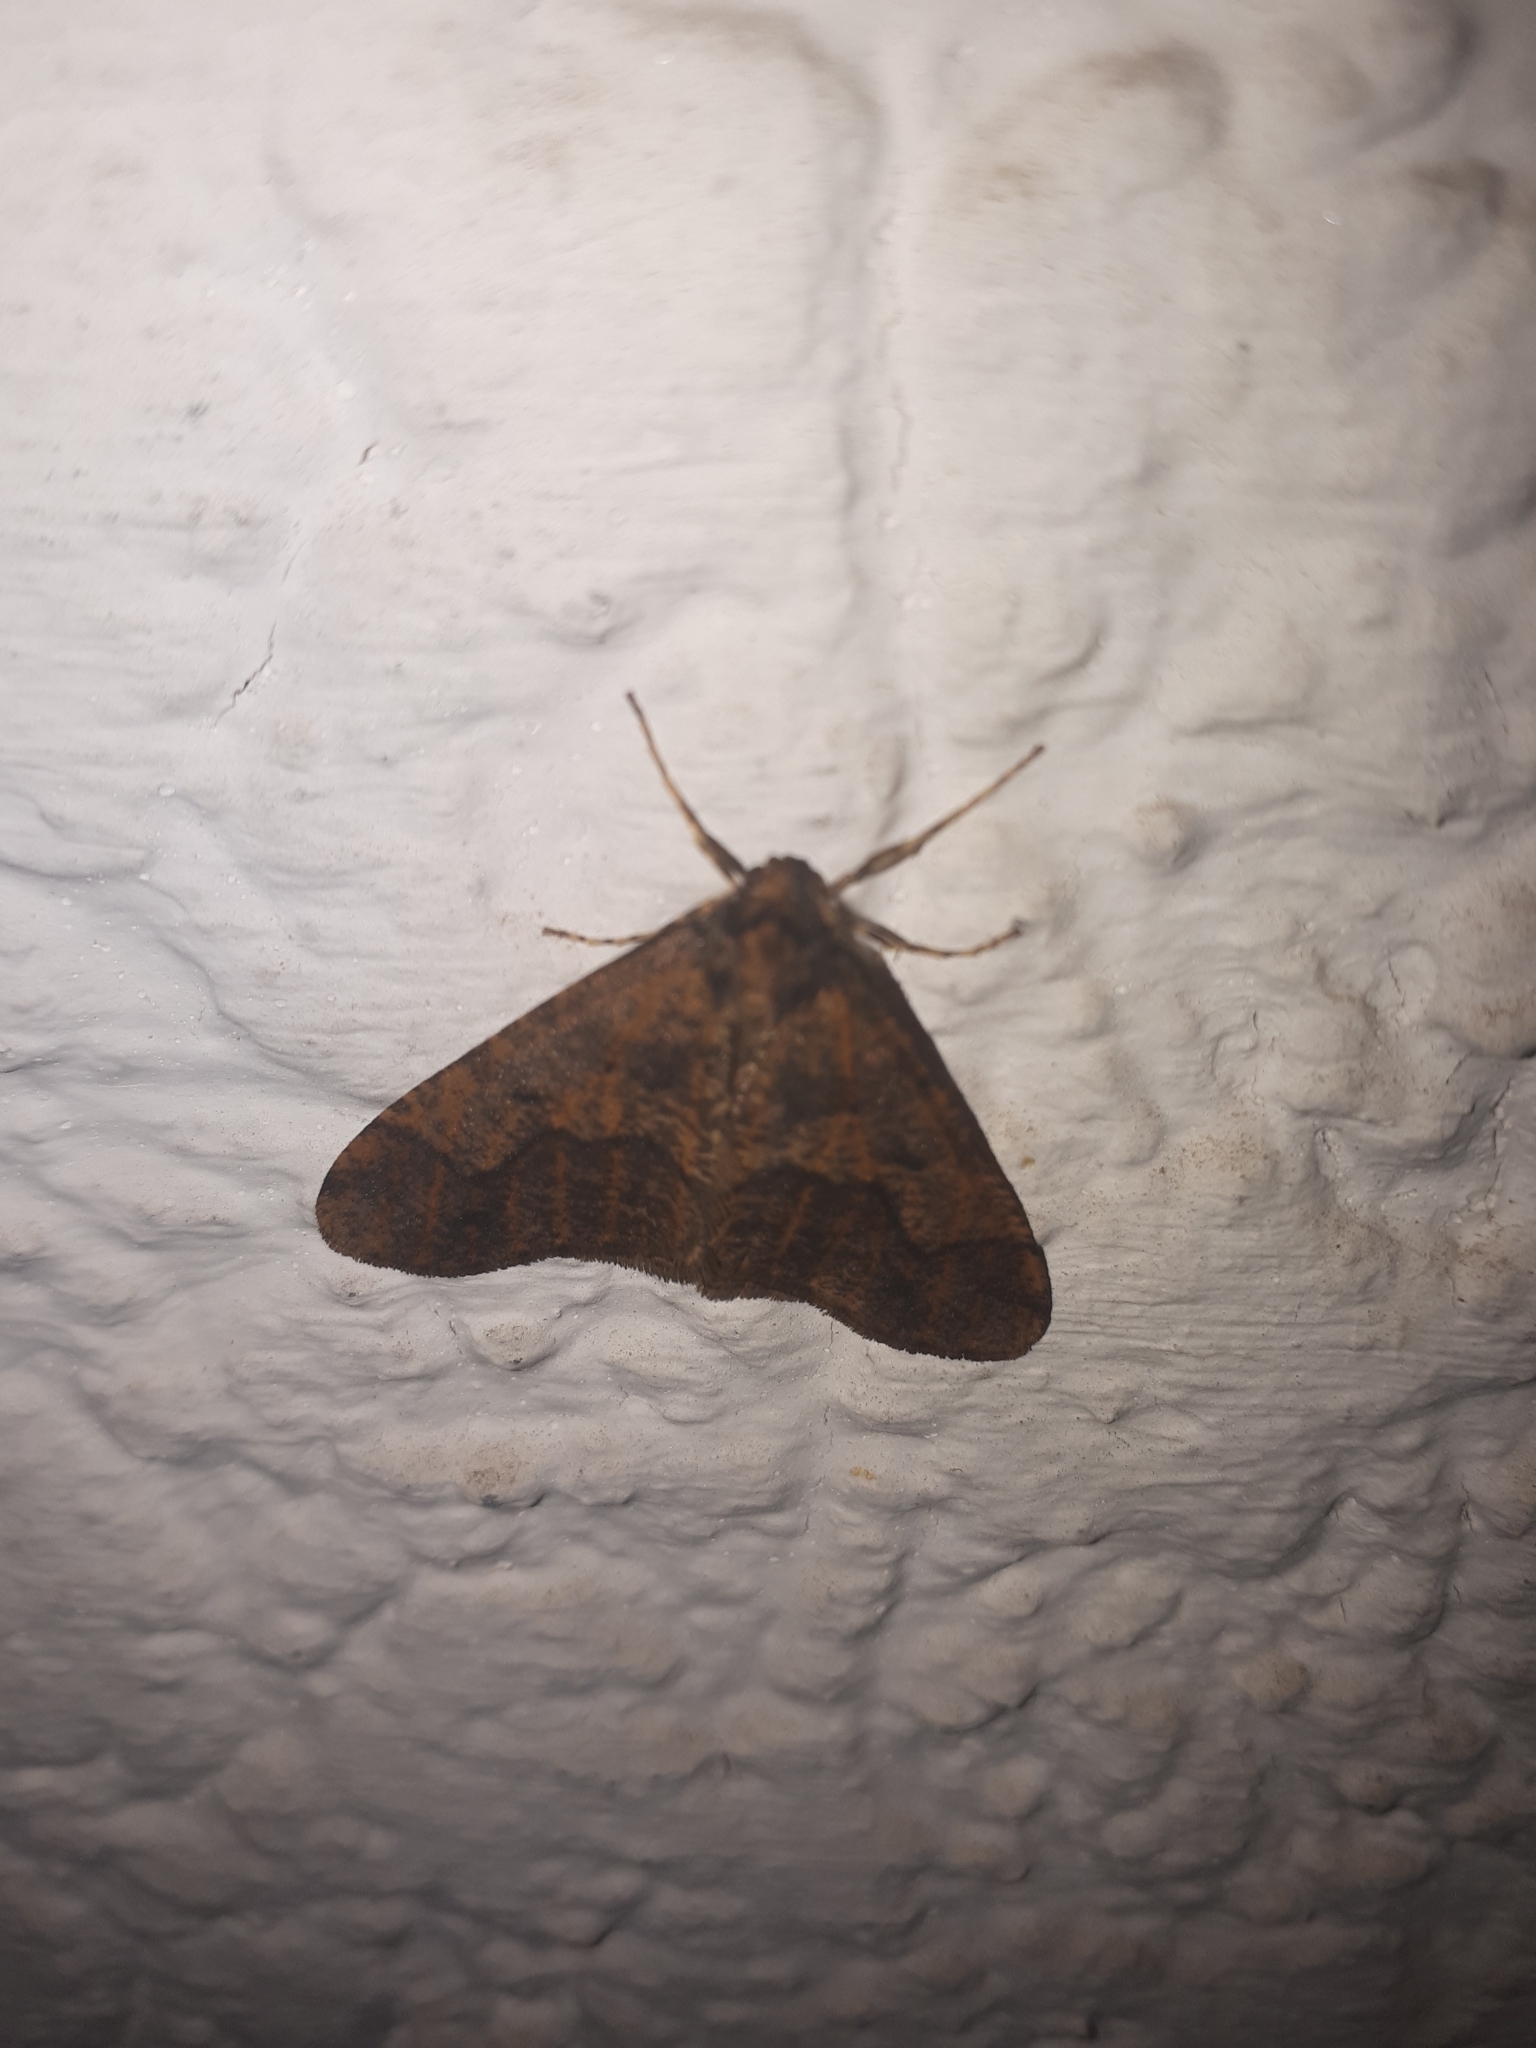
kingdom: Animalia
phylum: Arthropoda
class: Insecta
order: Lepidoptera
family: Geometridae
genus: Erannis
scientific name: Erannis defoliaria
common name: Mottled umber
